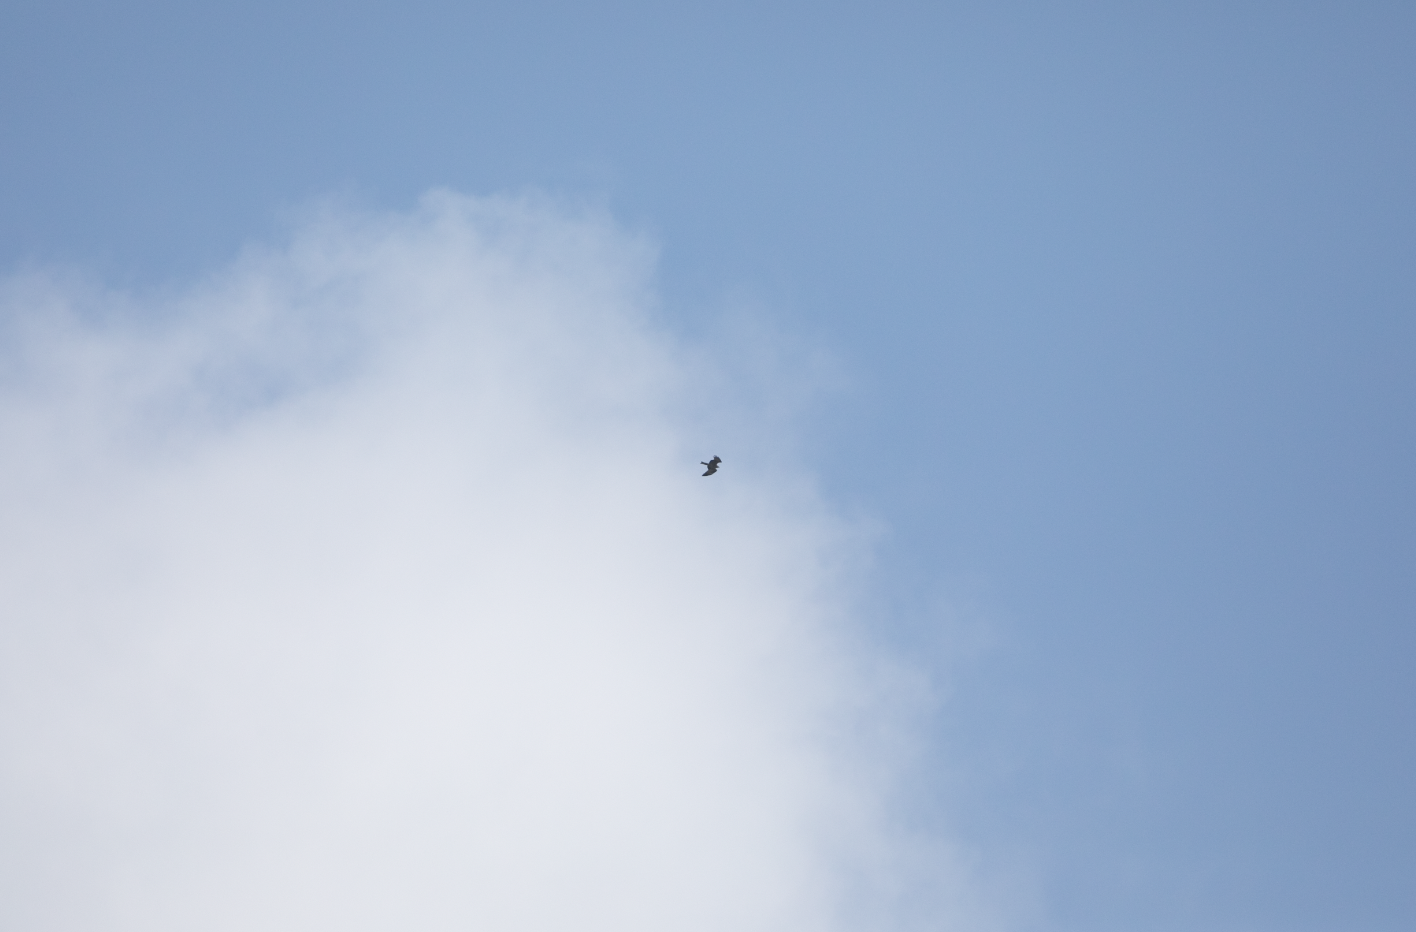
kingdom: Animalia
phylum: Chordata
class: Aves
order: Accipitriformes
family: Accipitridae
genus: Milvus
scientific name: Milvus milvus
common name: Red kite
